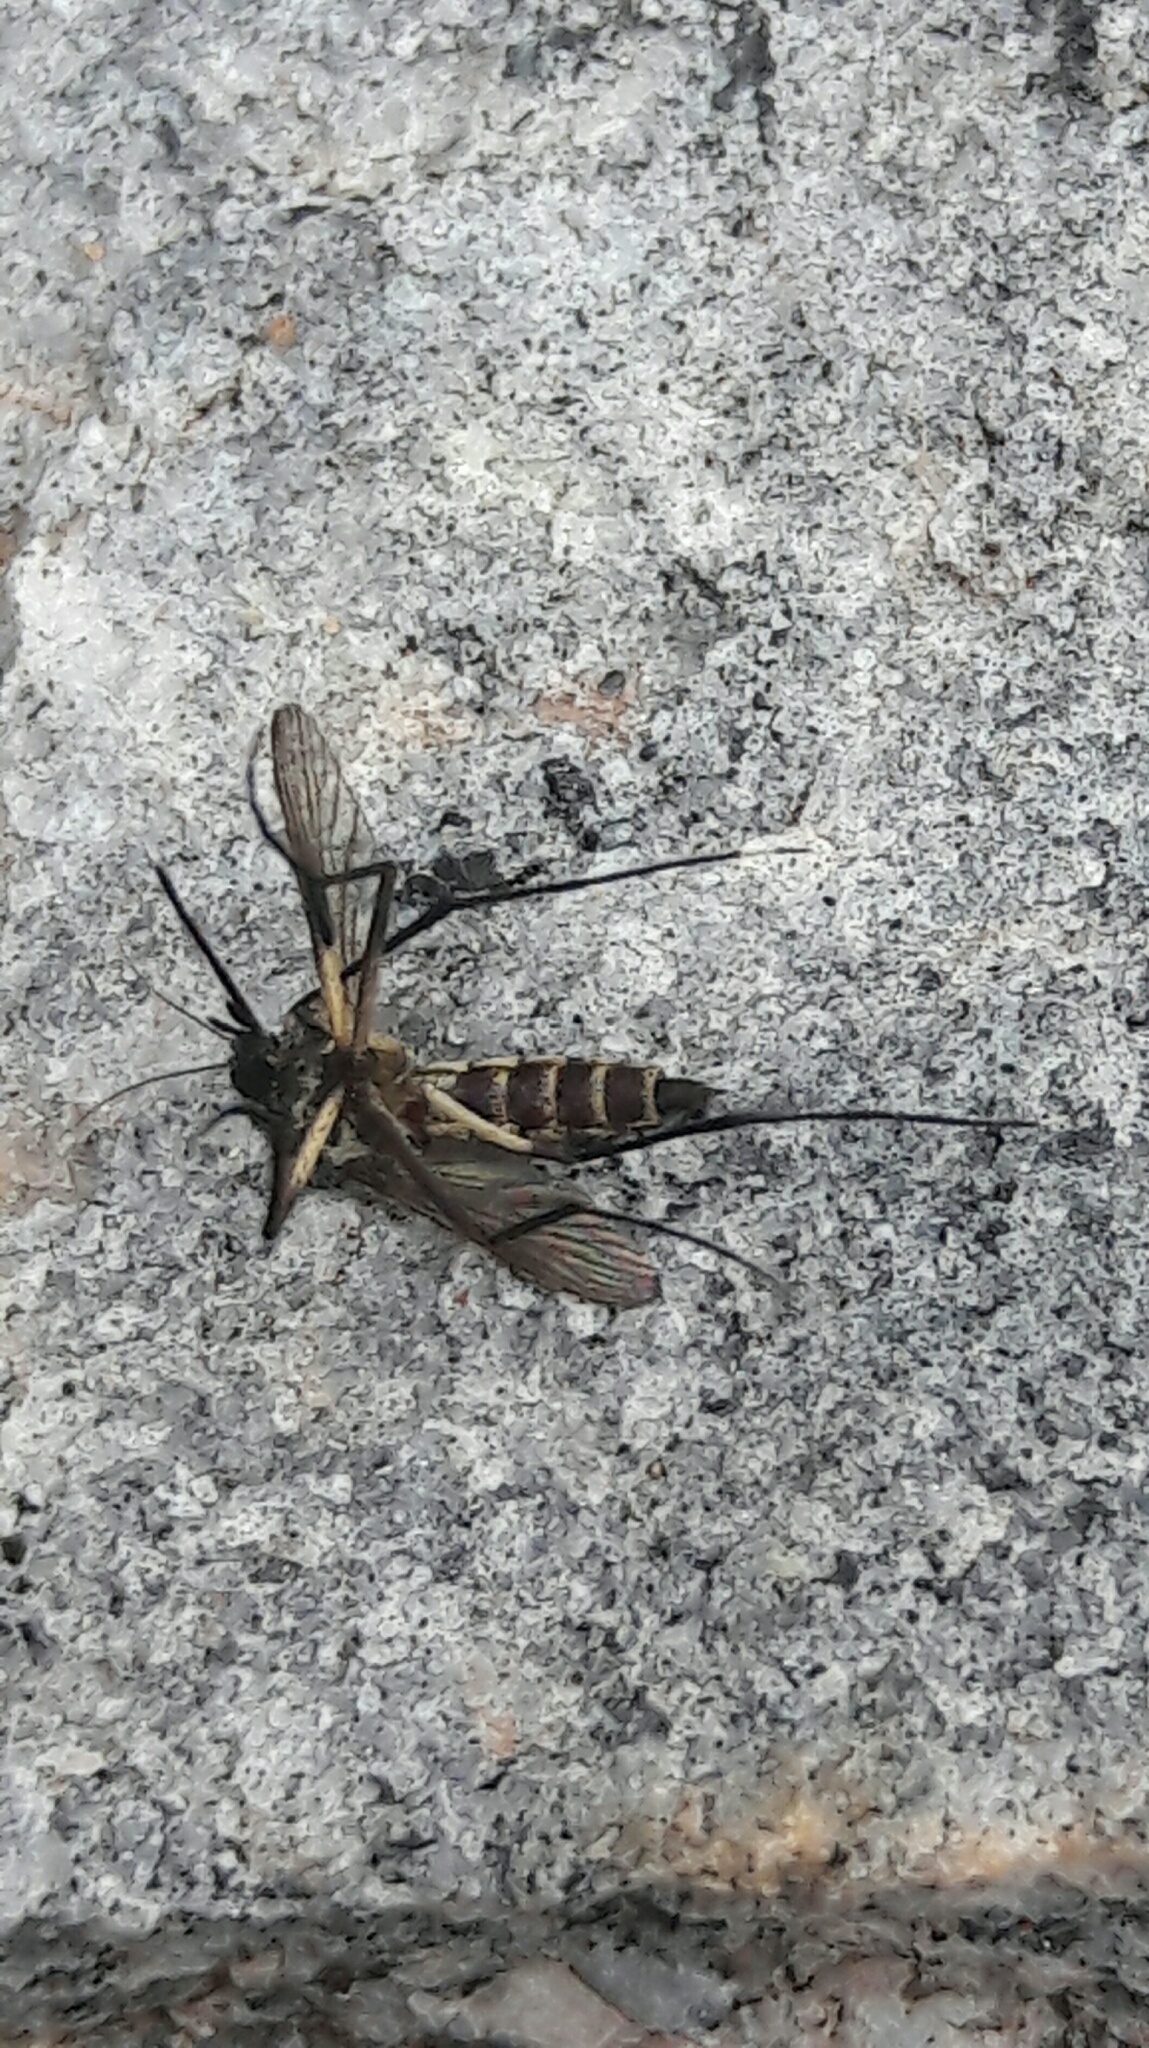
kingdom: Animalia
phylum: Arthropoda
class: Insecta
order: Diptera
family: Culicidae
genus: Psorophora
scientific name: Psorophora albigenu
